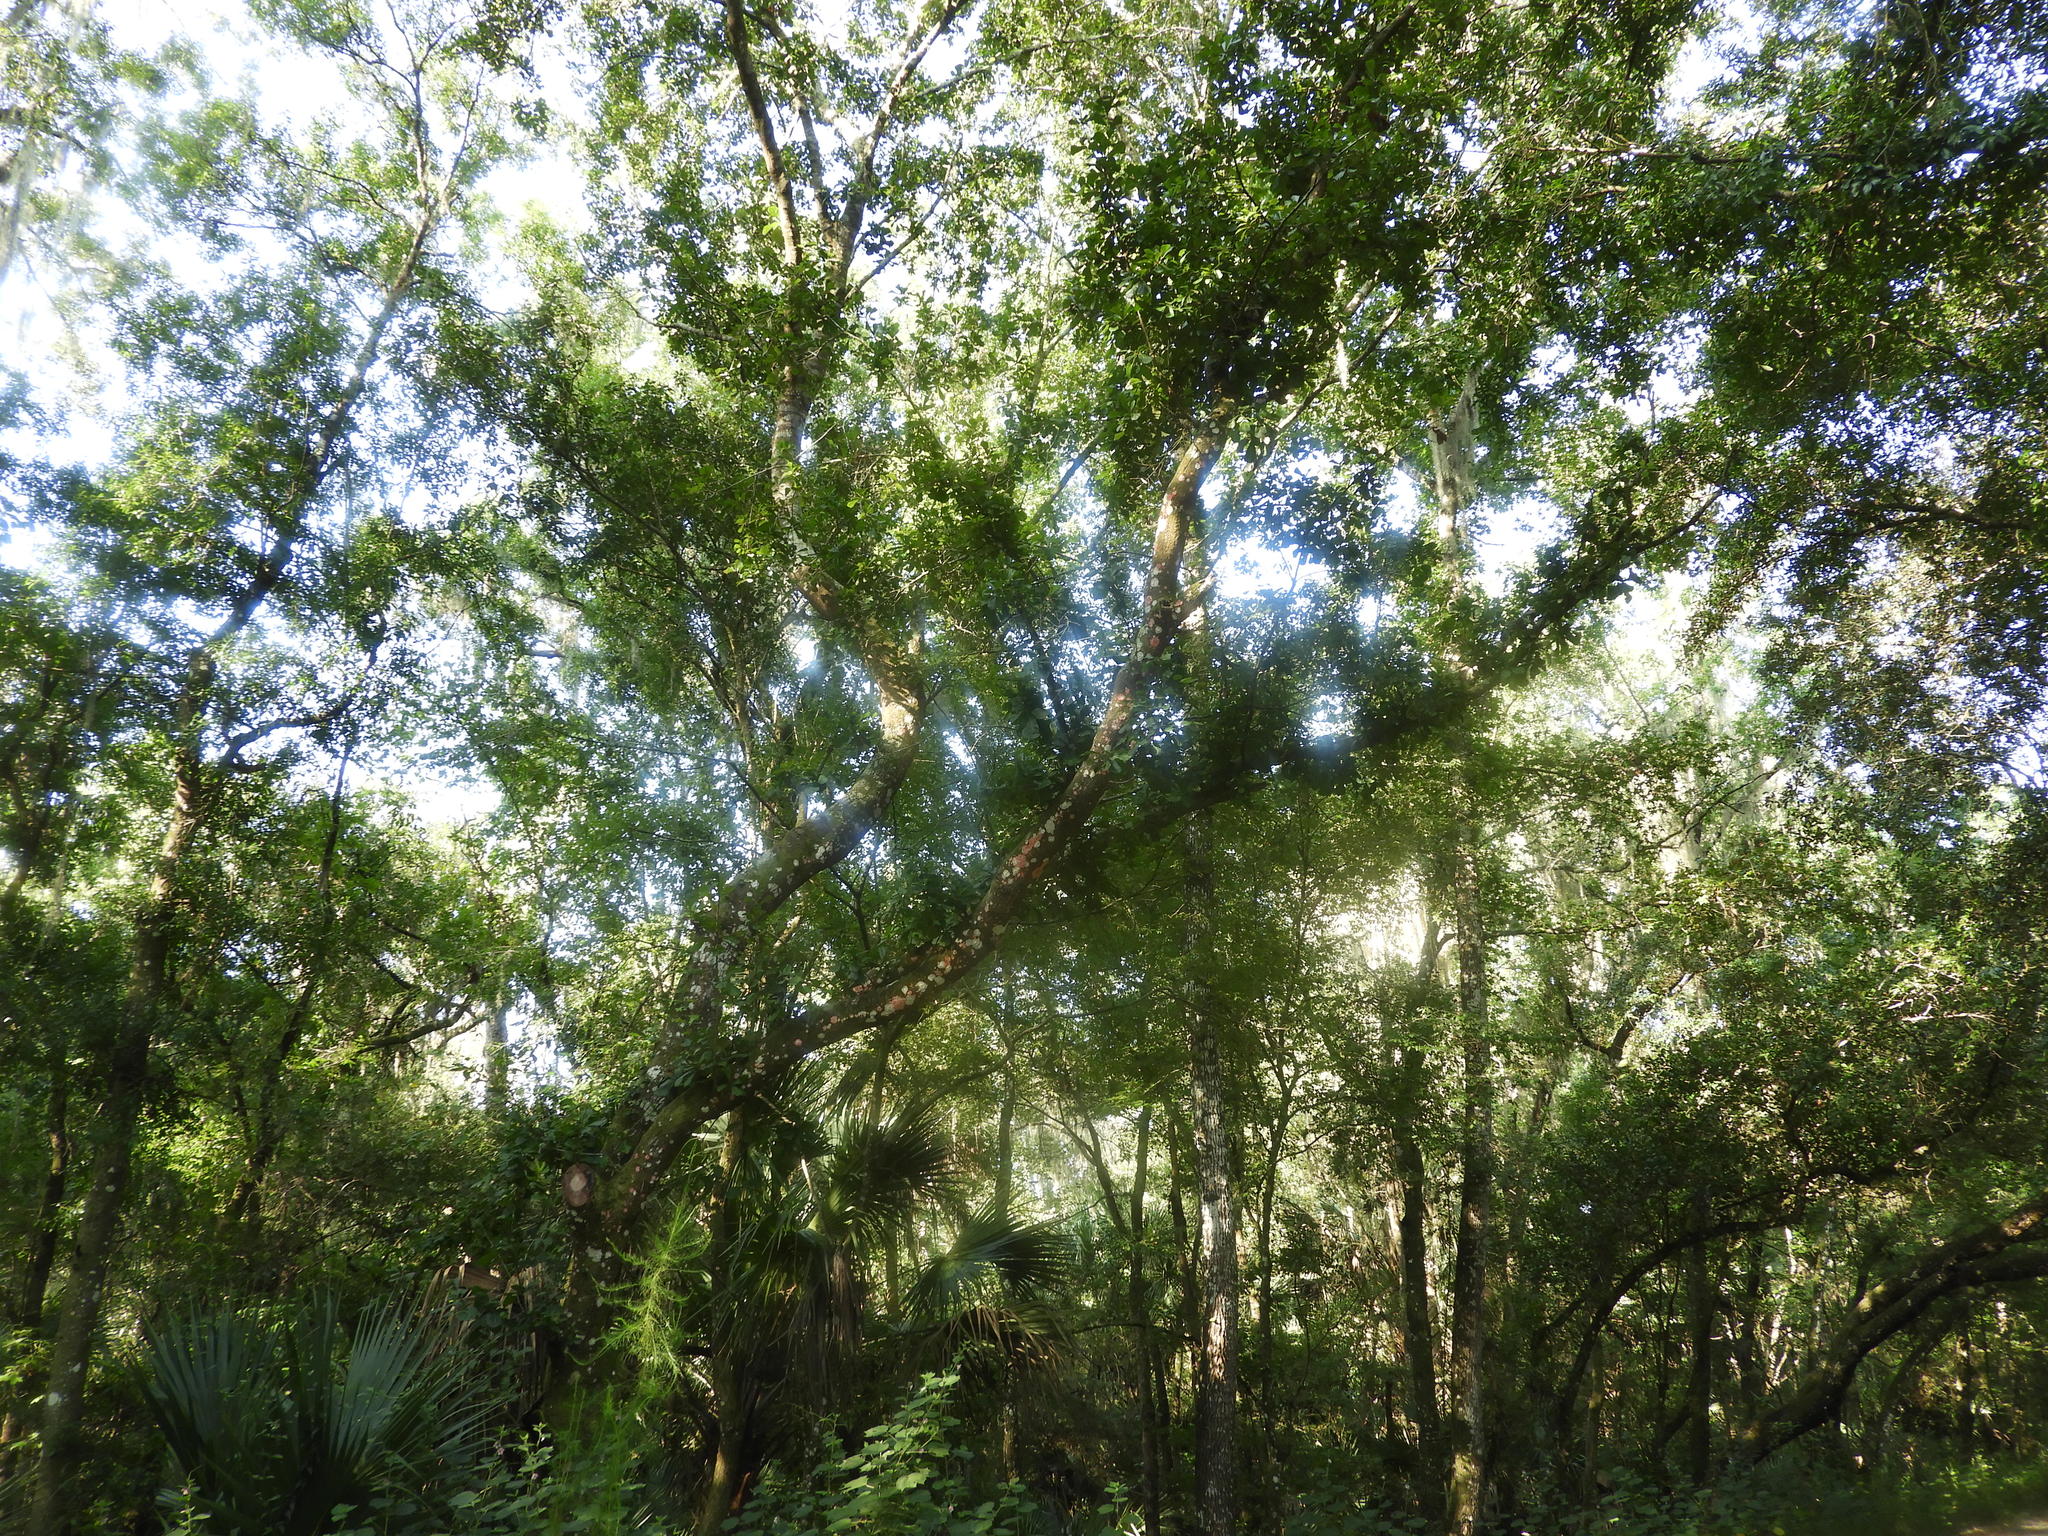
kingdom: Fungi
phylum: Ascomycota
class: Arthoniomycetes
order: Arthoniales
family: Arthoniaceae
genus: Herpothallon
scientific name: Herpothallon rubrocinctum
